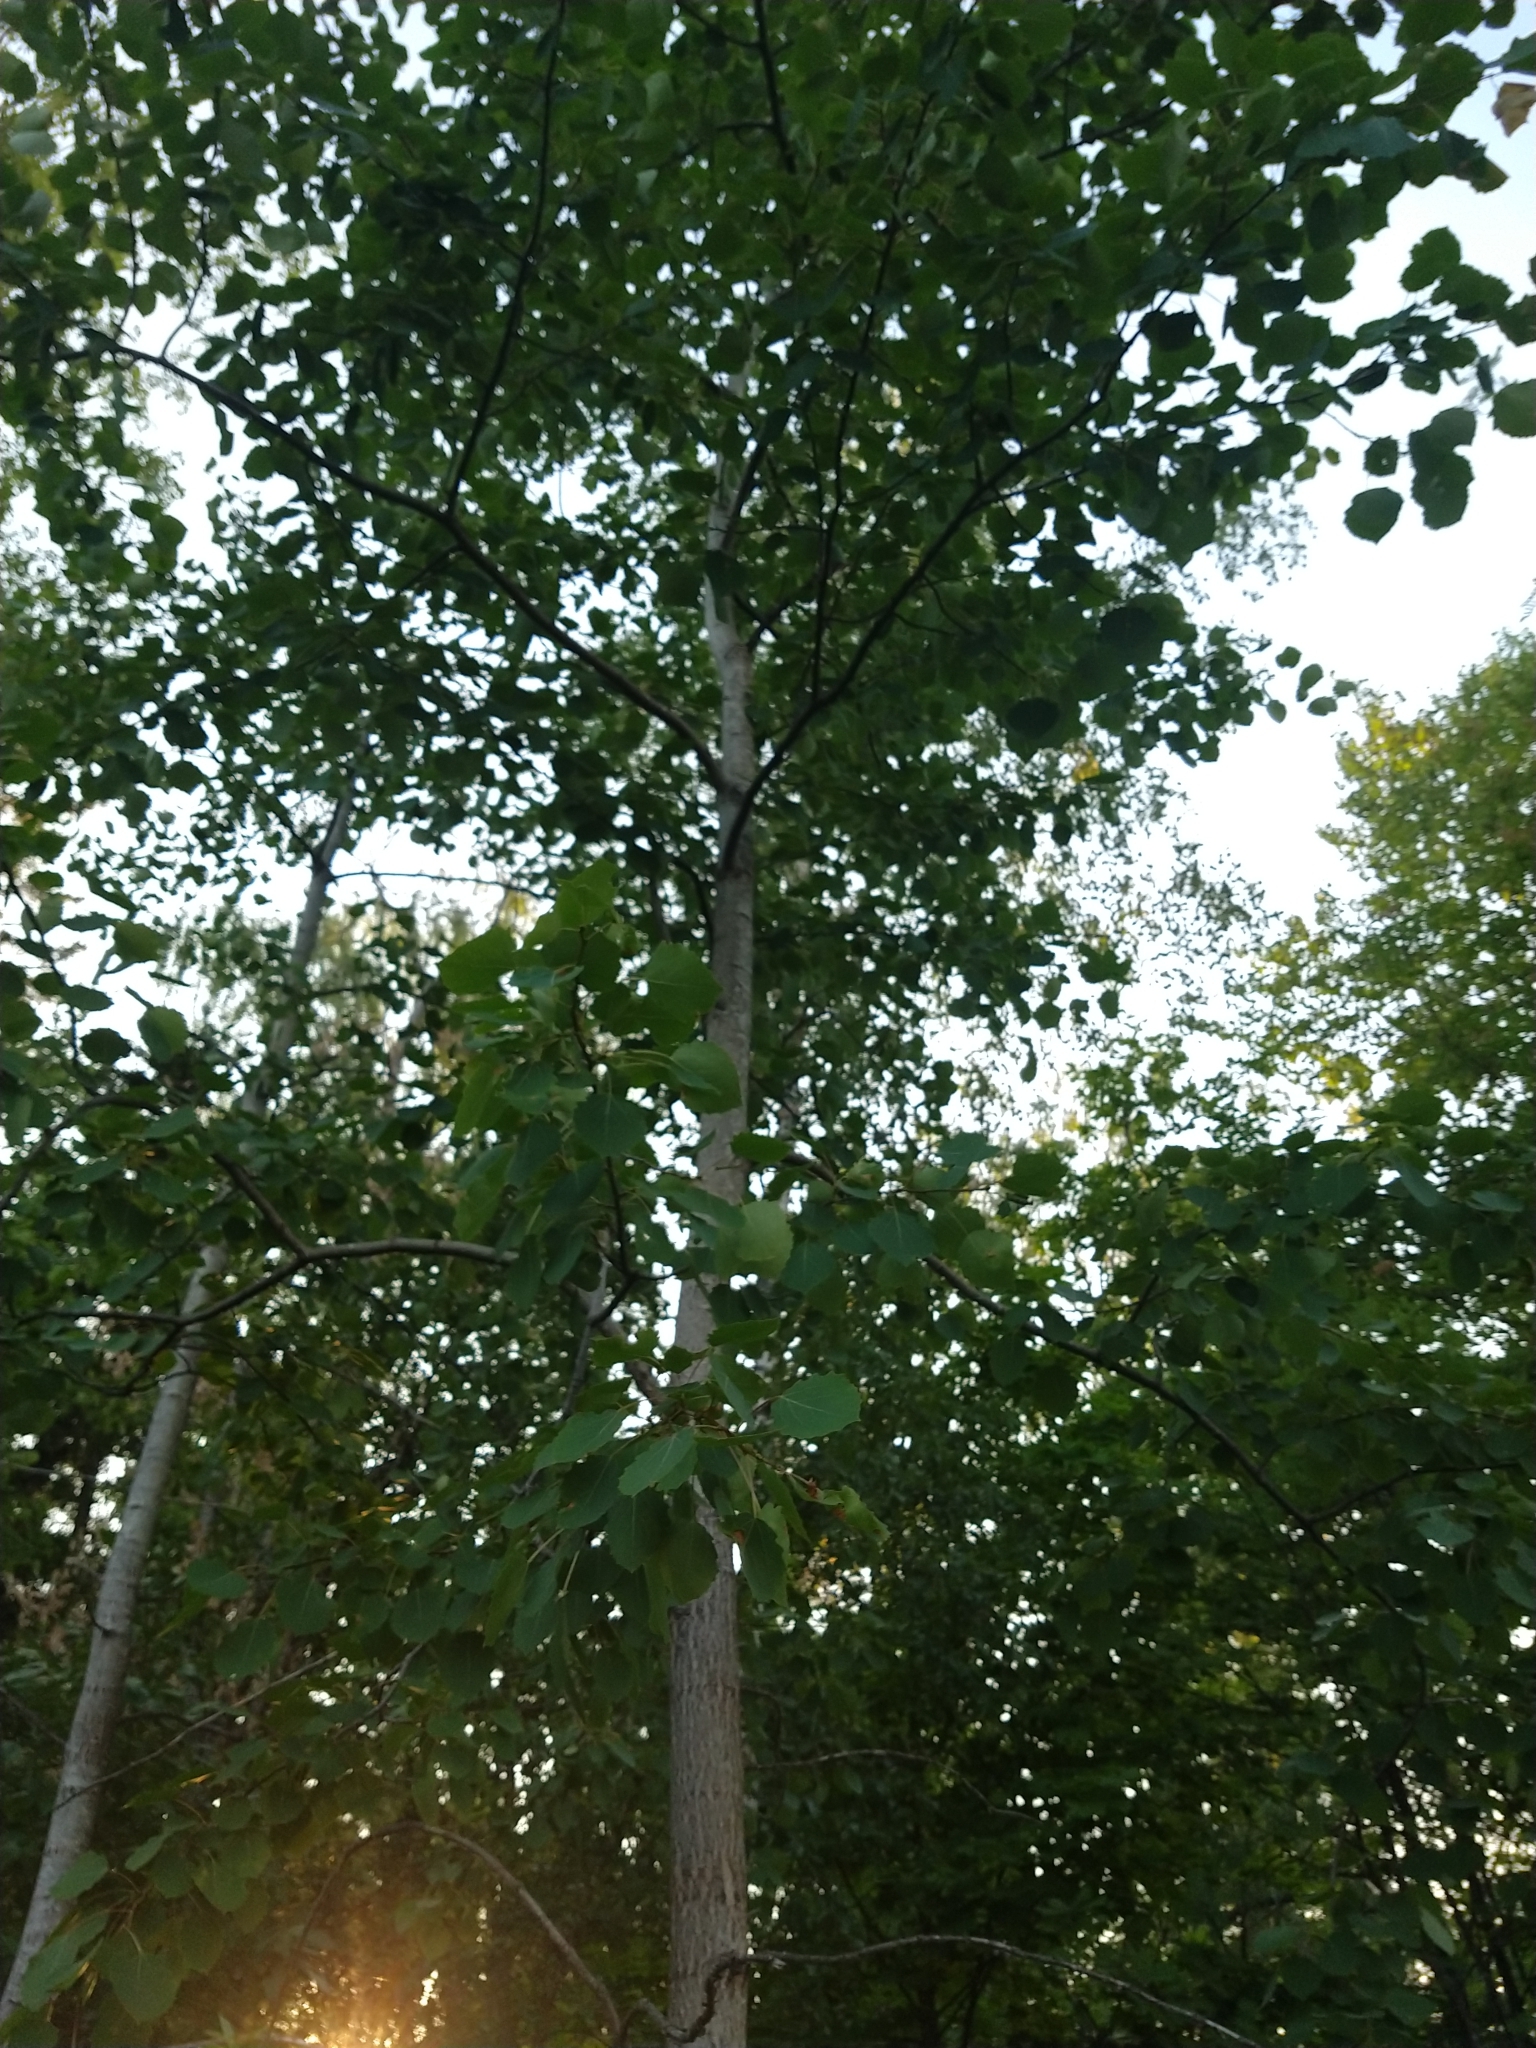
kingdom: Plantae
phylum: Tracheophyta
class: Magnoliopsida
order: Malpighiales
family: Salicaceae
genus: Populus
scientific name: Populus tremula
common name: European aspen
